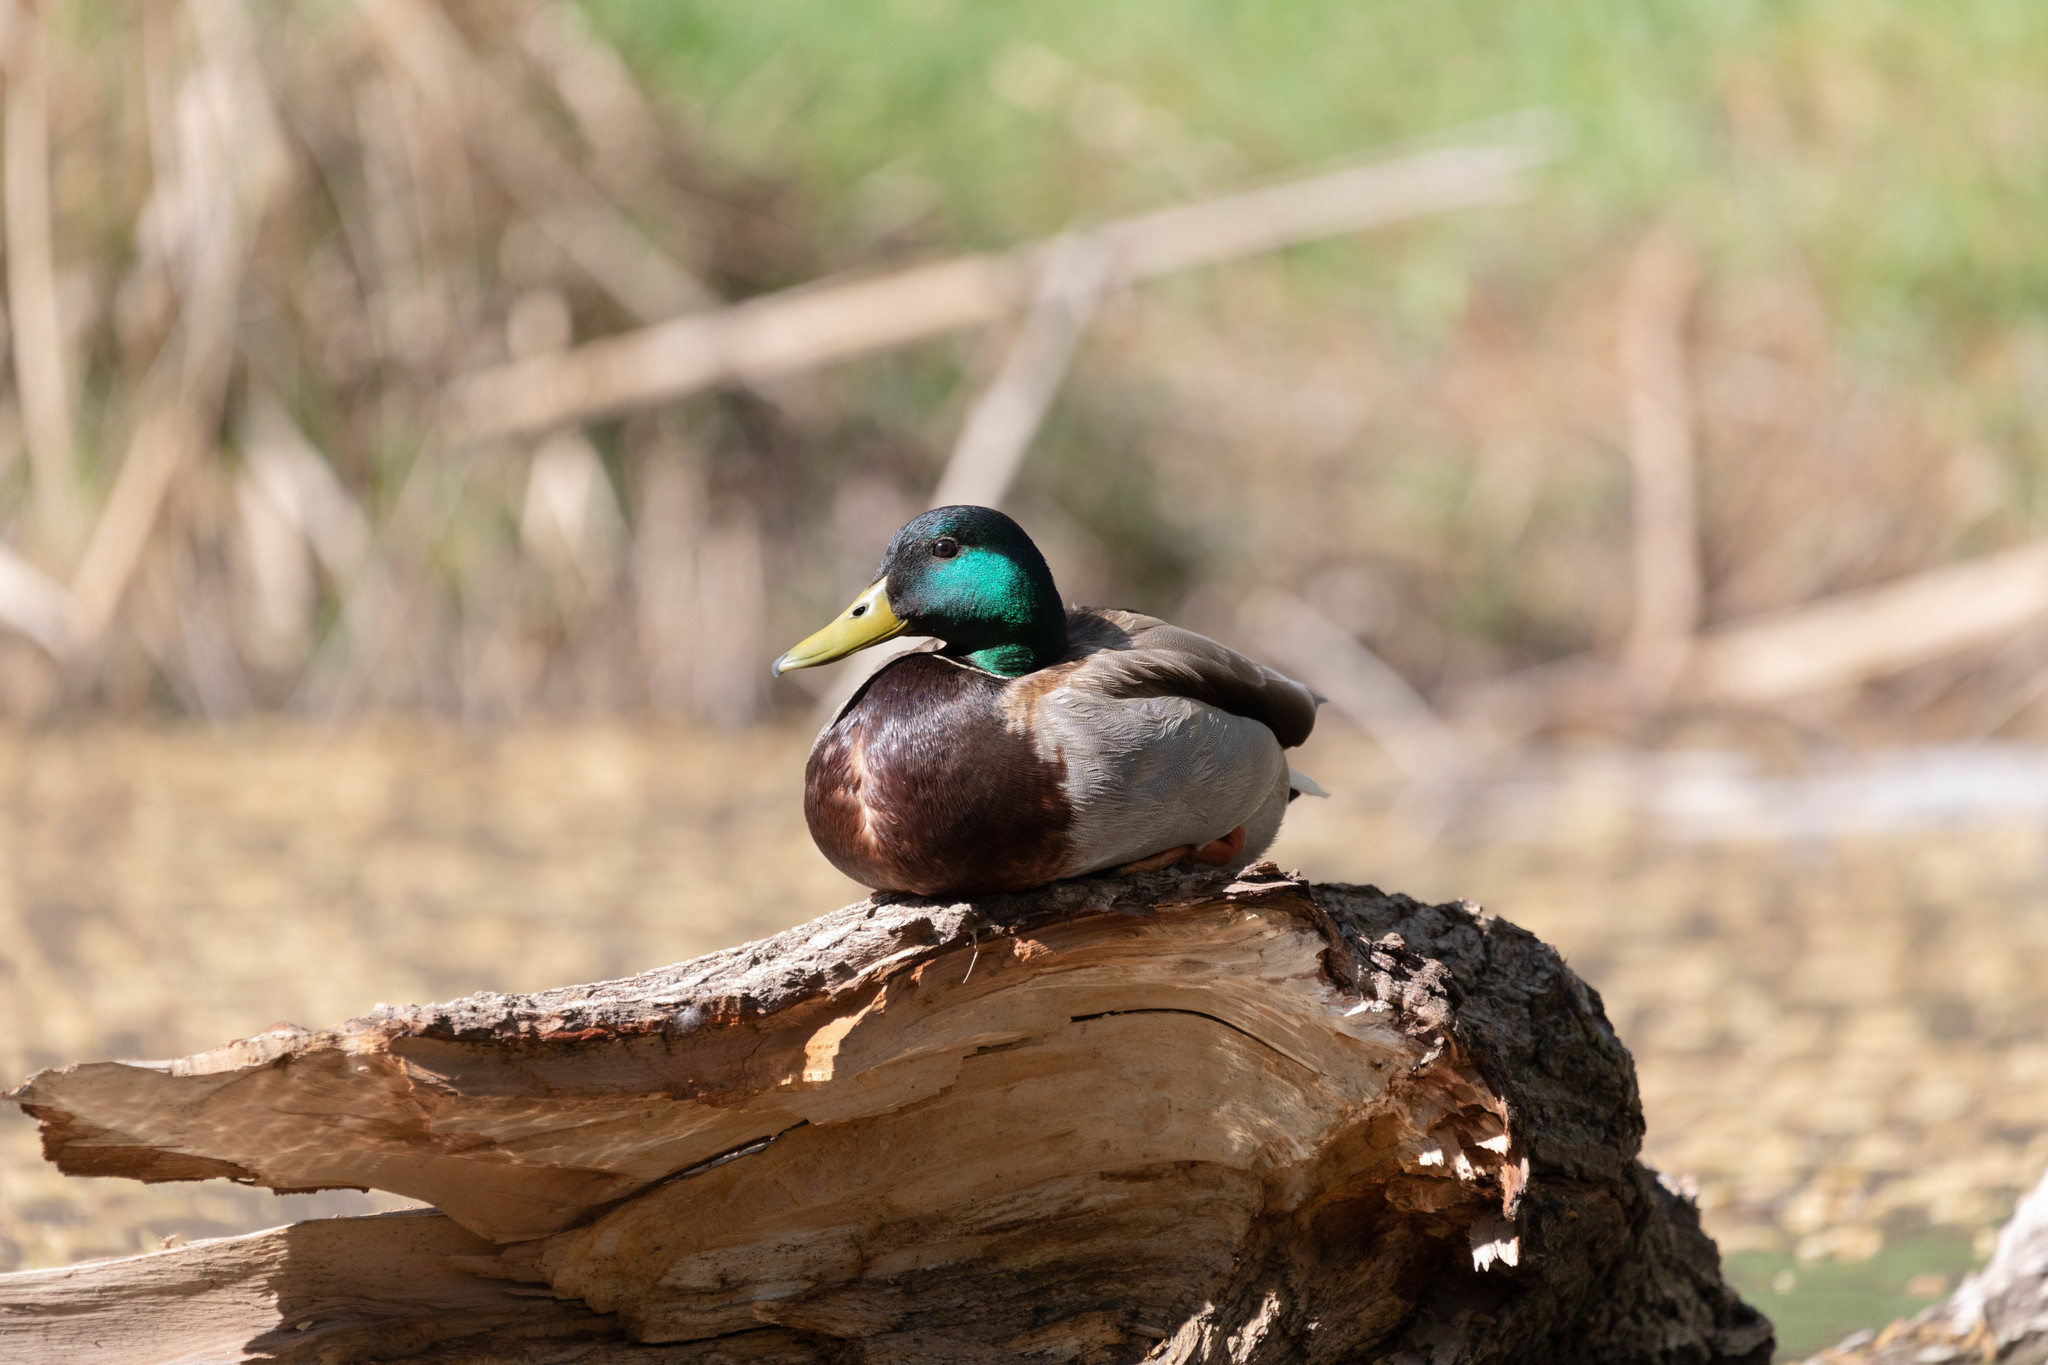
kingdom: Animalia
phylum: Chordata
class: Aves
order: Anseriformes
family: Anatidae
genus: Anas
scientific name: Anas platyrhynchos
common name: Mallard
